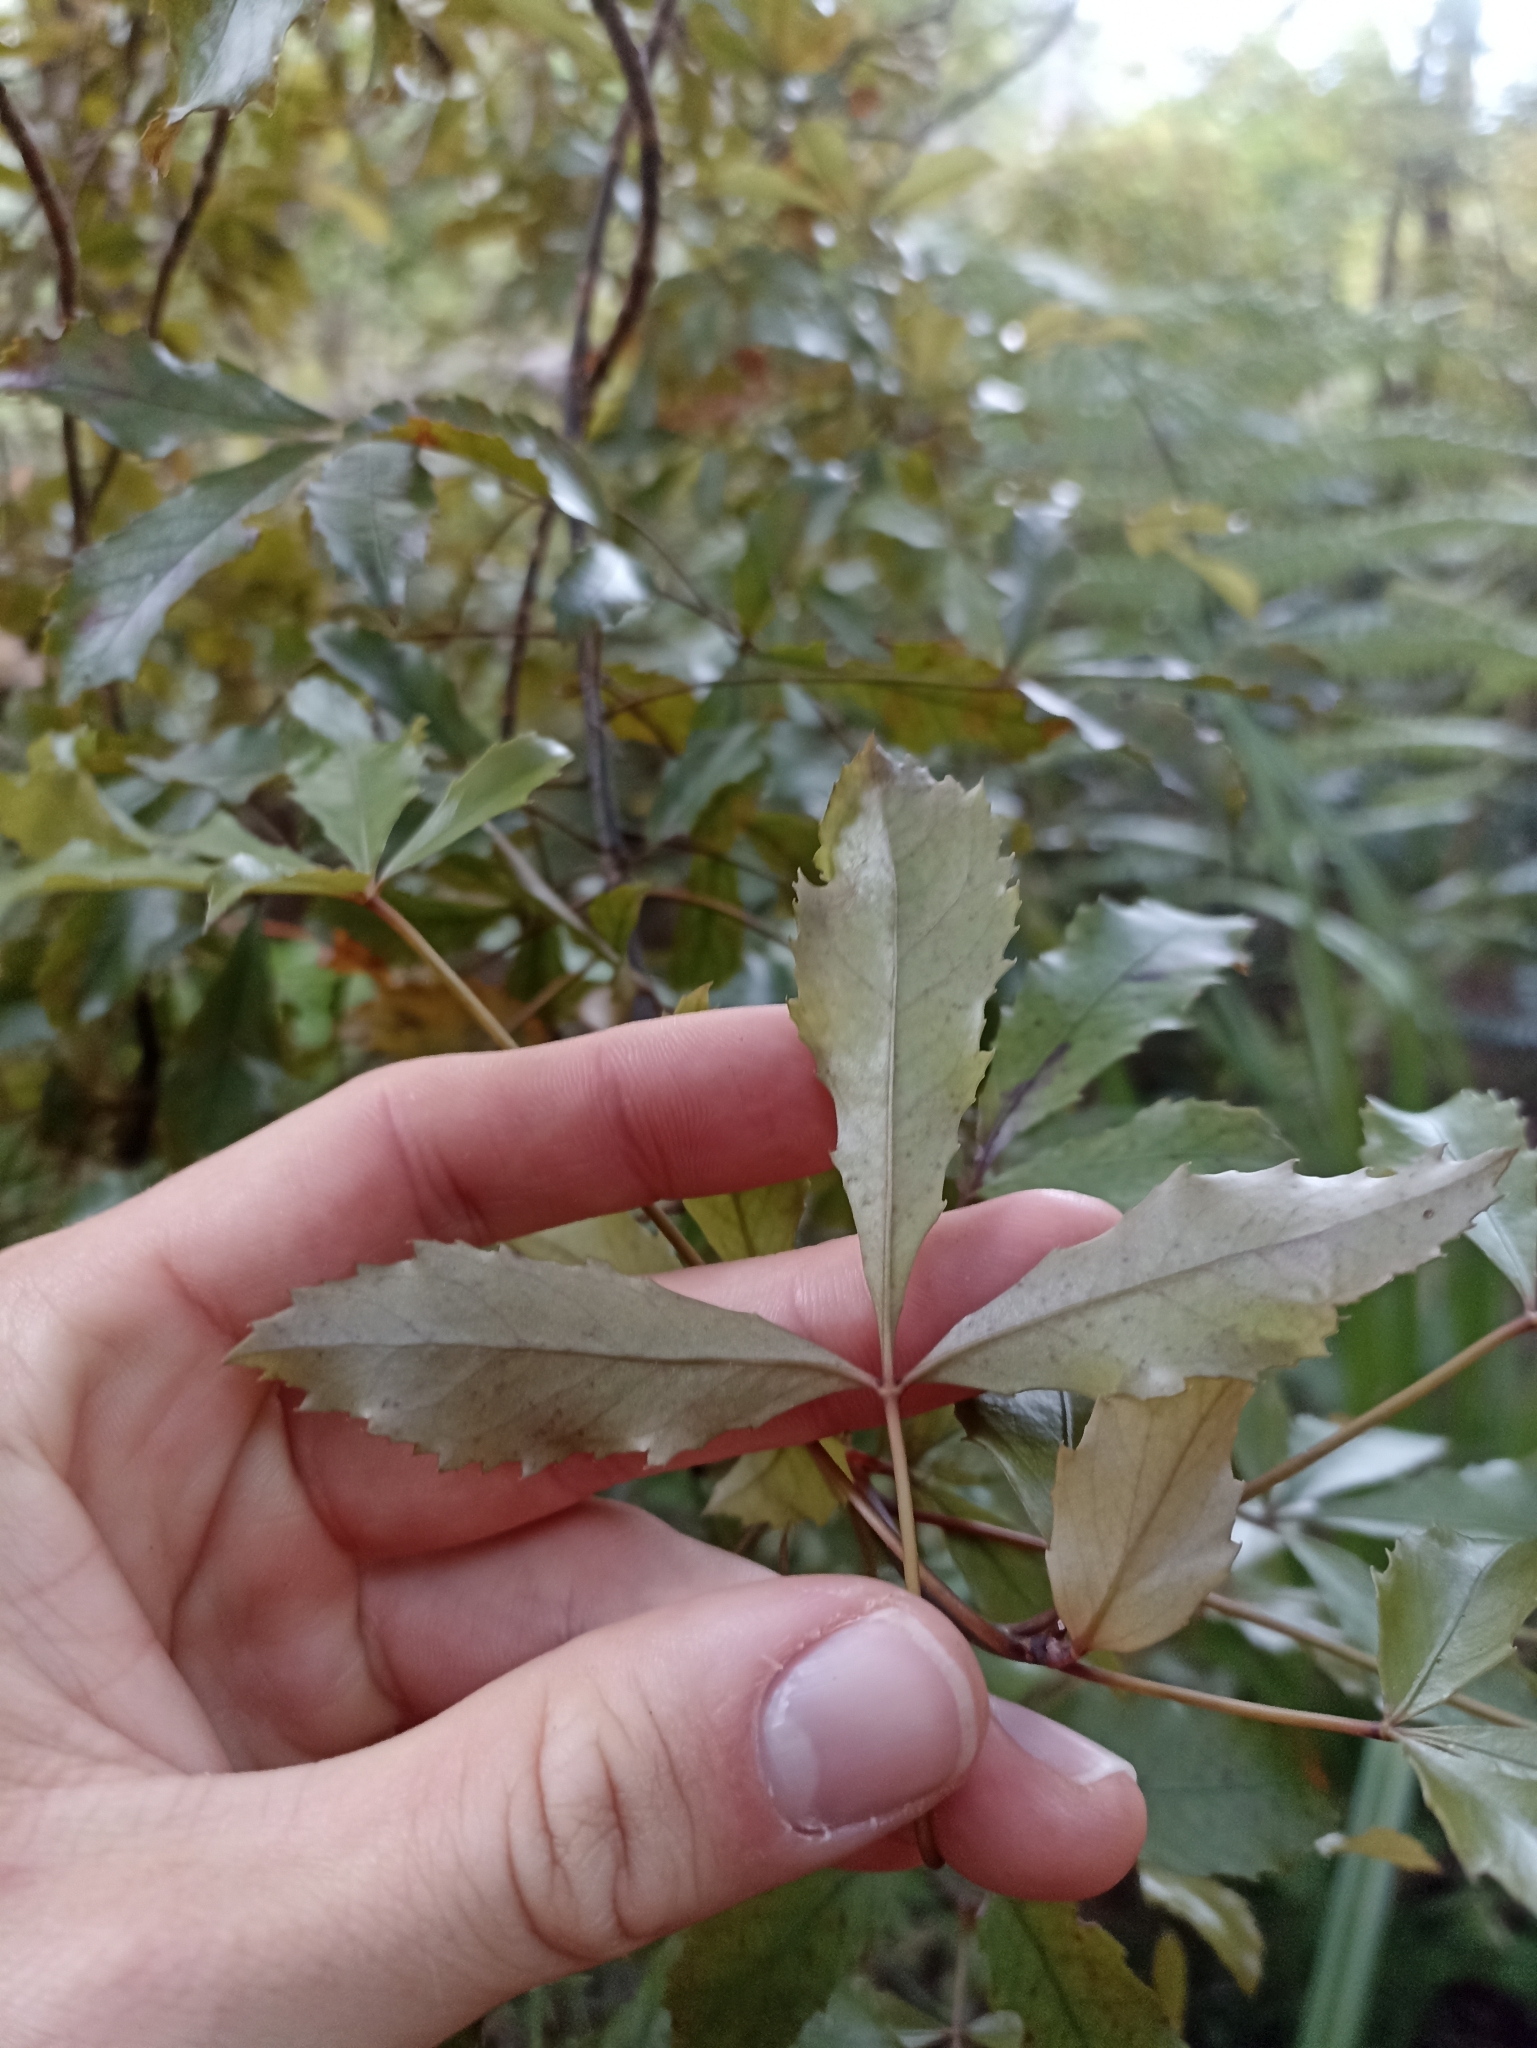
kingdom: Plantae
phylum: Tracheophyta
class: Magnoliopsida
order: Apiales
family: Araliaceae
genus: Pseudopanax
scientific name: Pseudopanax discolor
